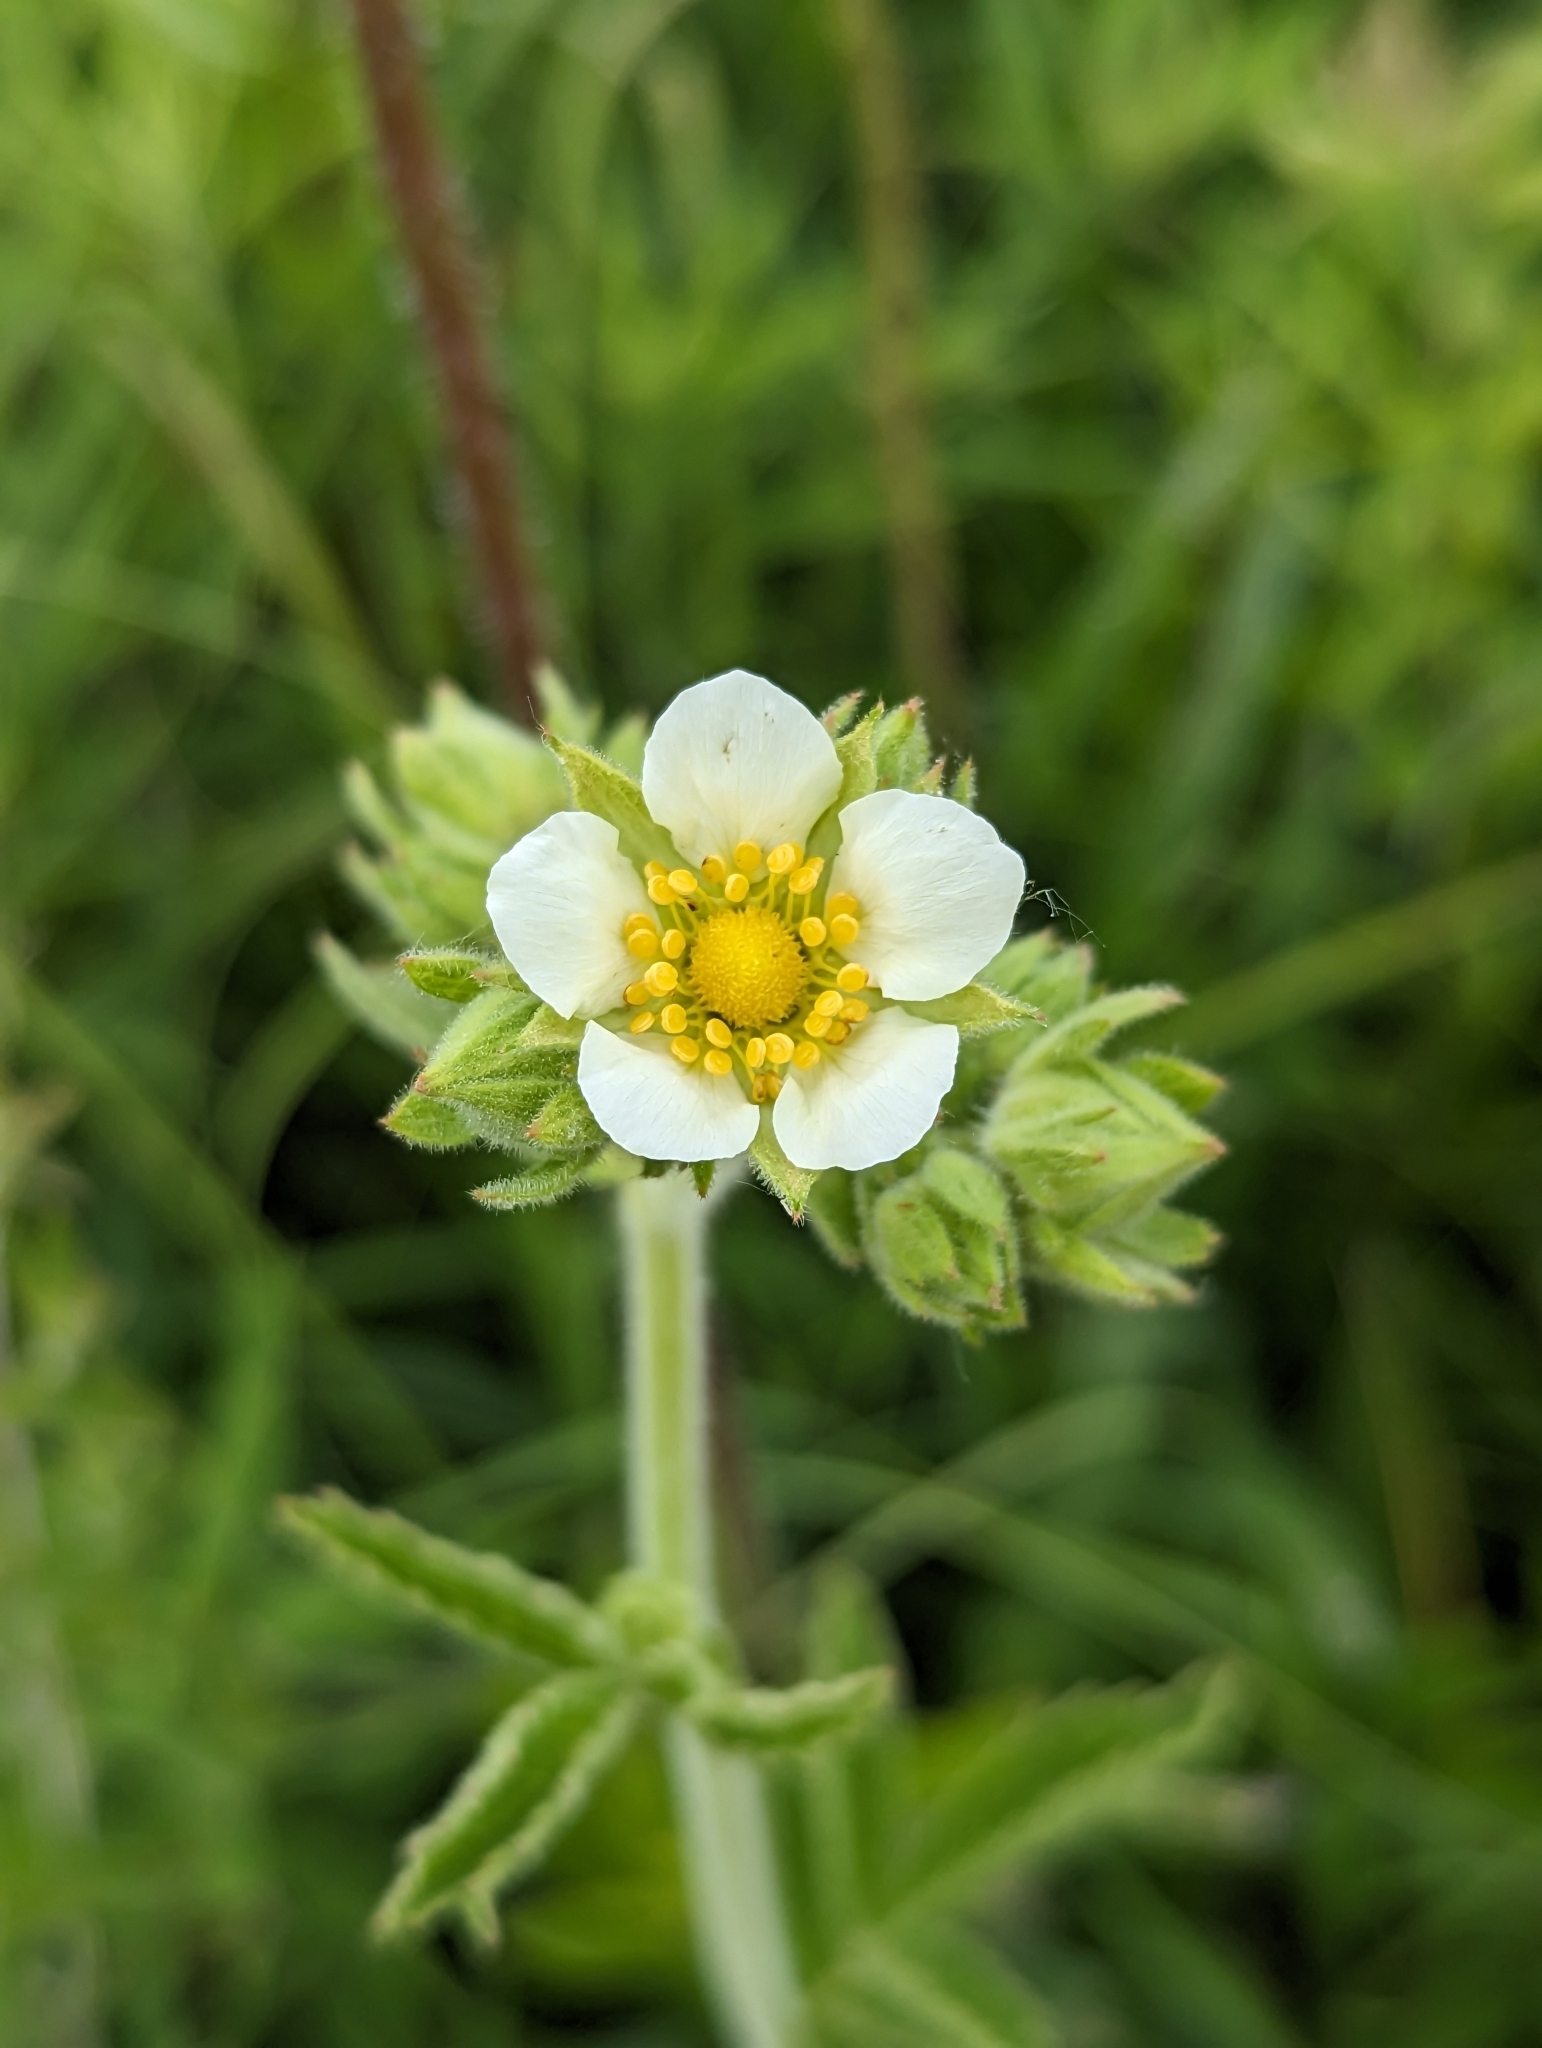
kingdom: Plantae
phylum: Tracheophyta
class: Magnoliopsida
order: Rosales
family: Rosaceae
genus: Drymocallis
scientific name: Drymocallis arguta
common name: Tall cinquefoil
